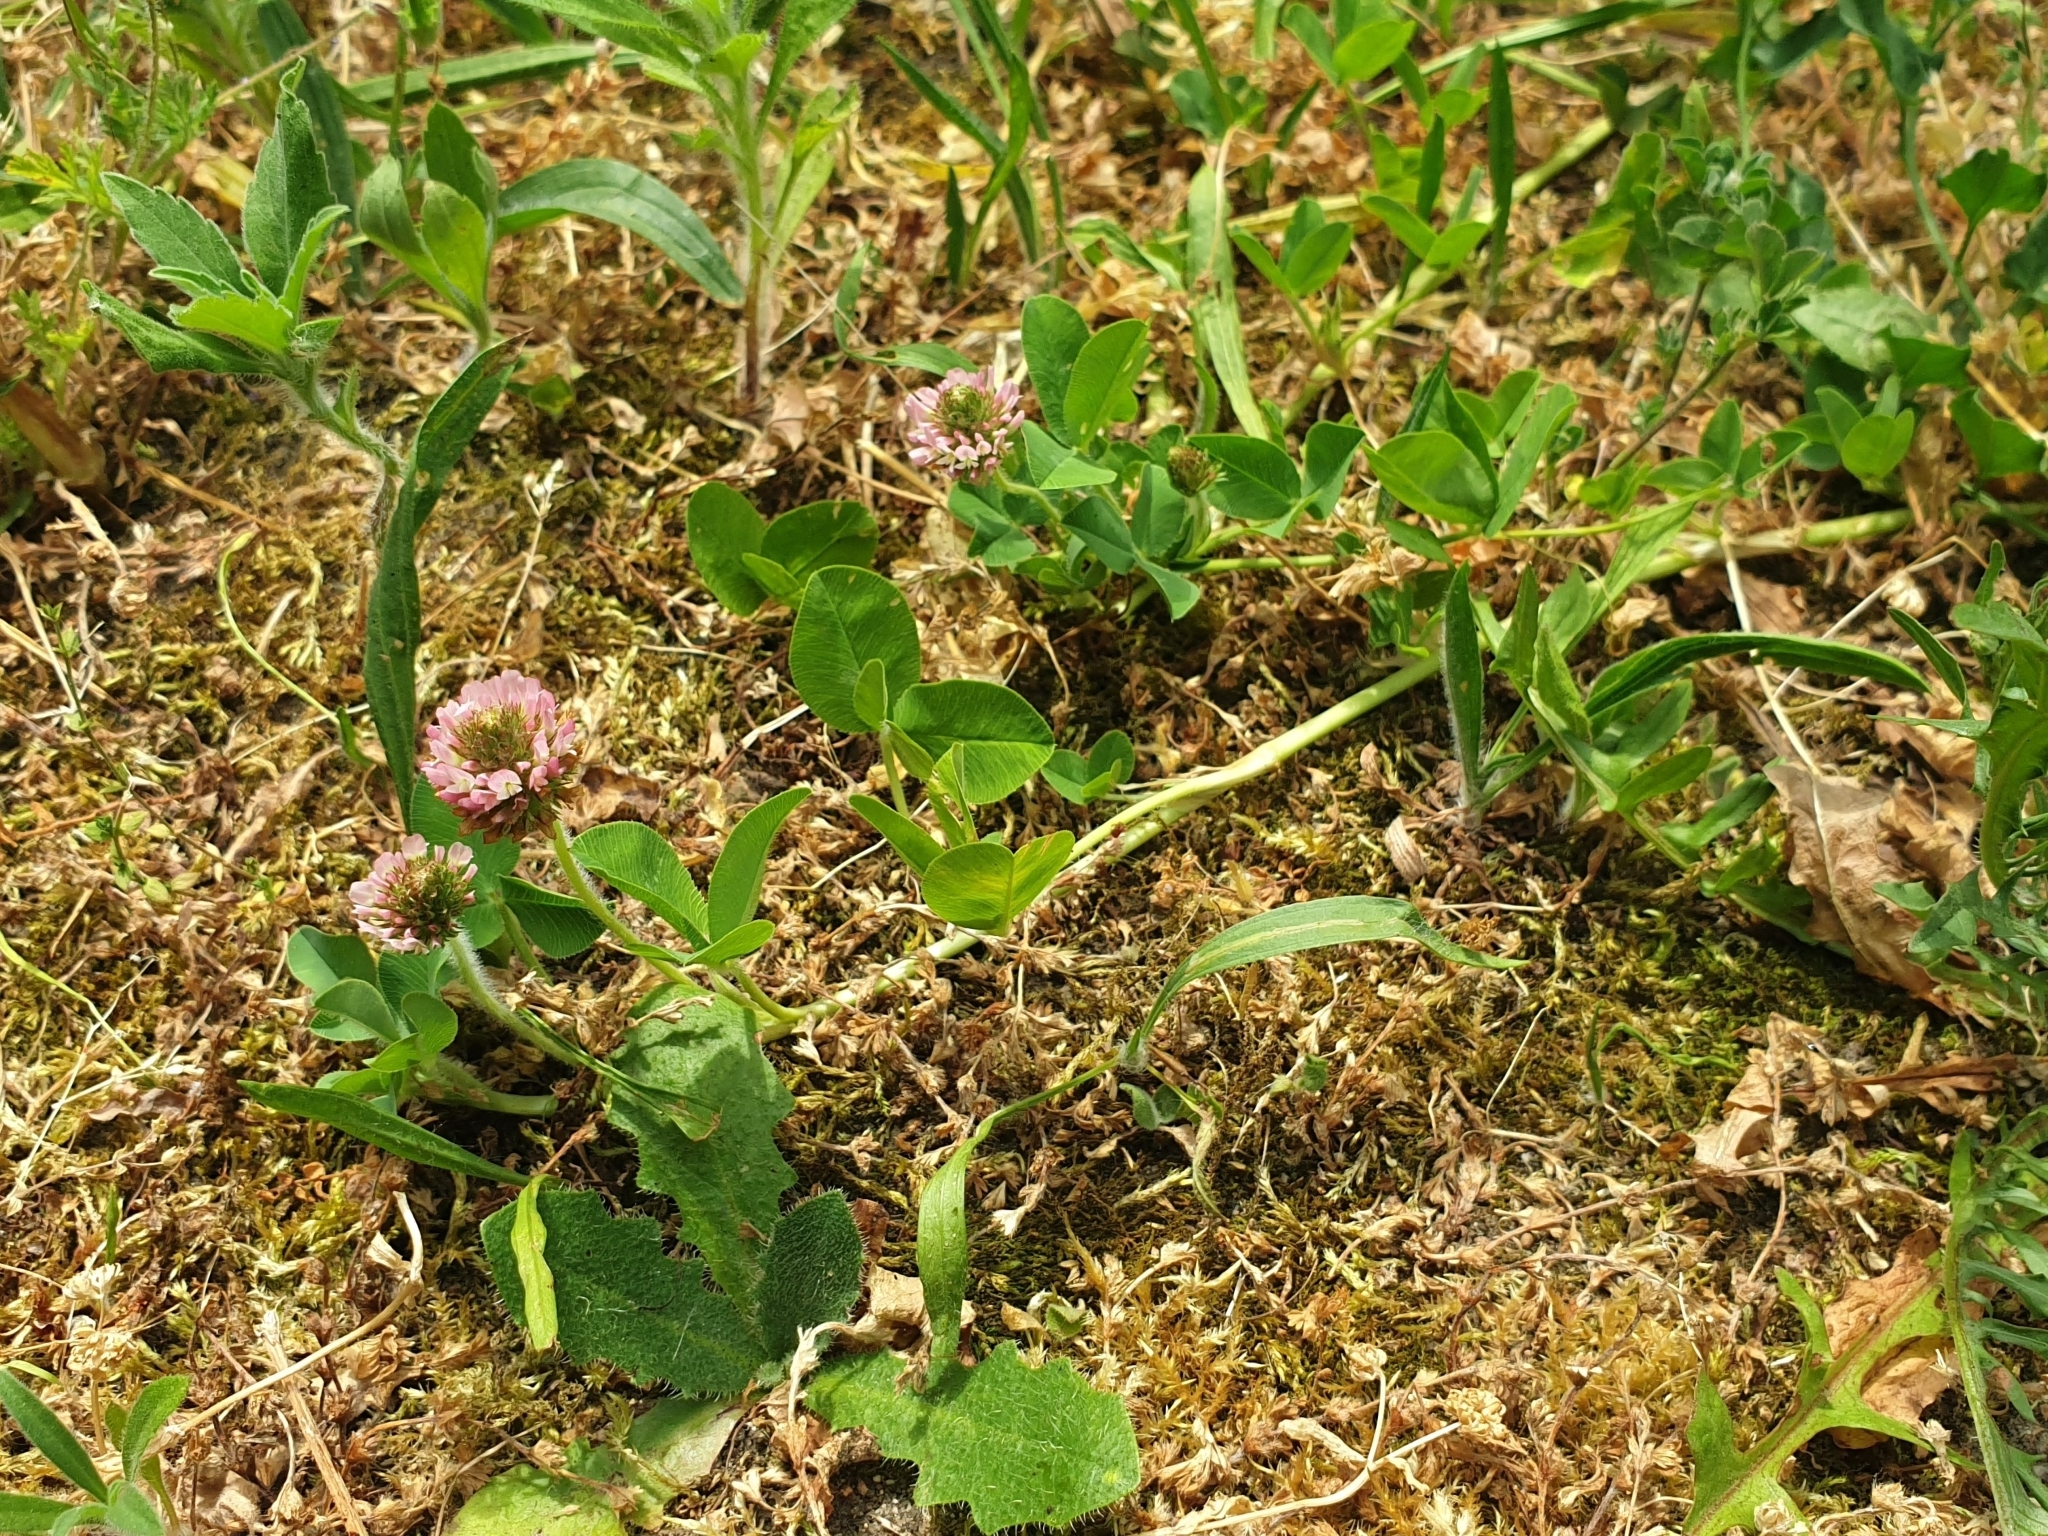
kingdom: Plantae
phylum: Tracheophyta
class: Magnoliopsida
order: Fabales
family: Fabaceae
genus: Trifolium
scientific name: Trifolium fragiferum
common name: Strawberry clover
